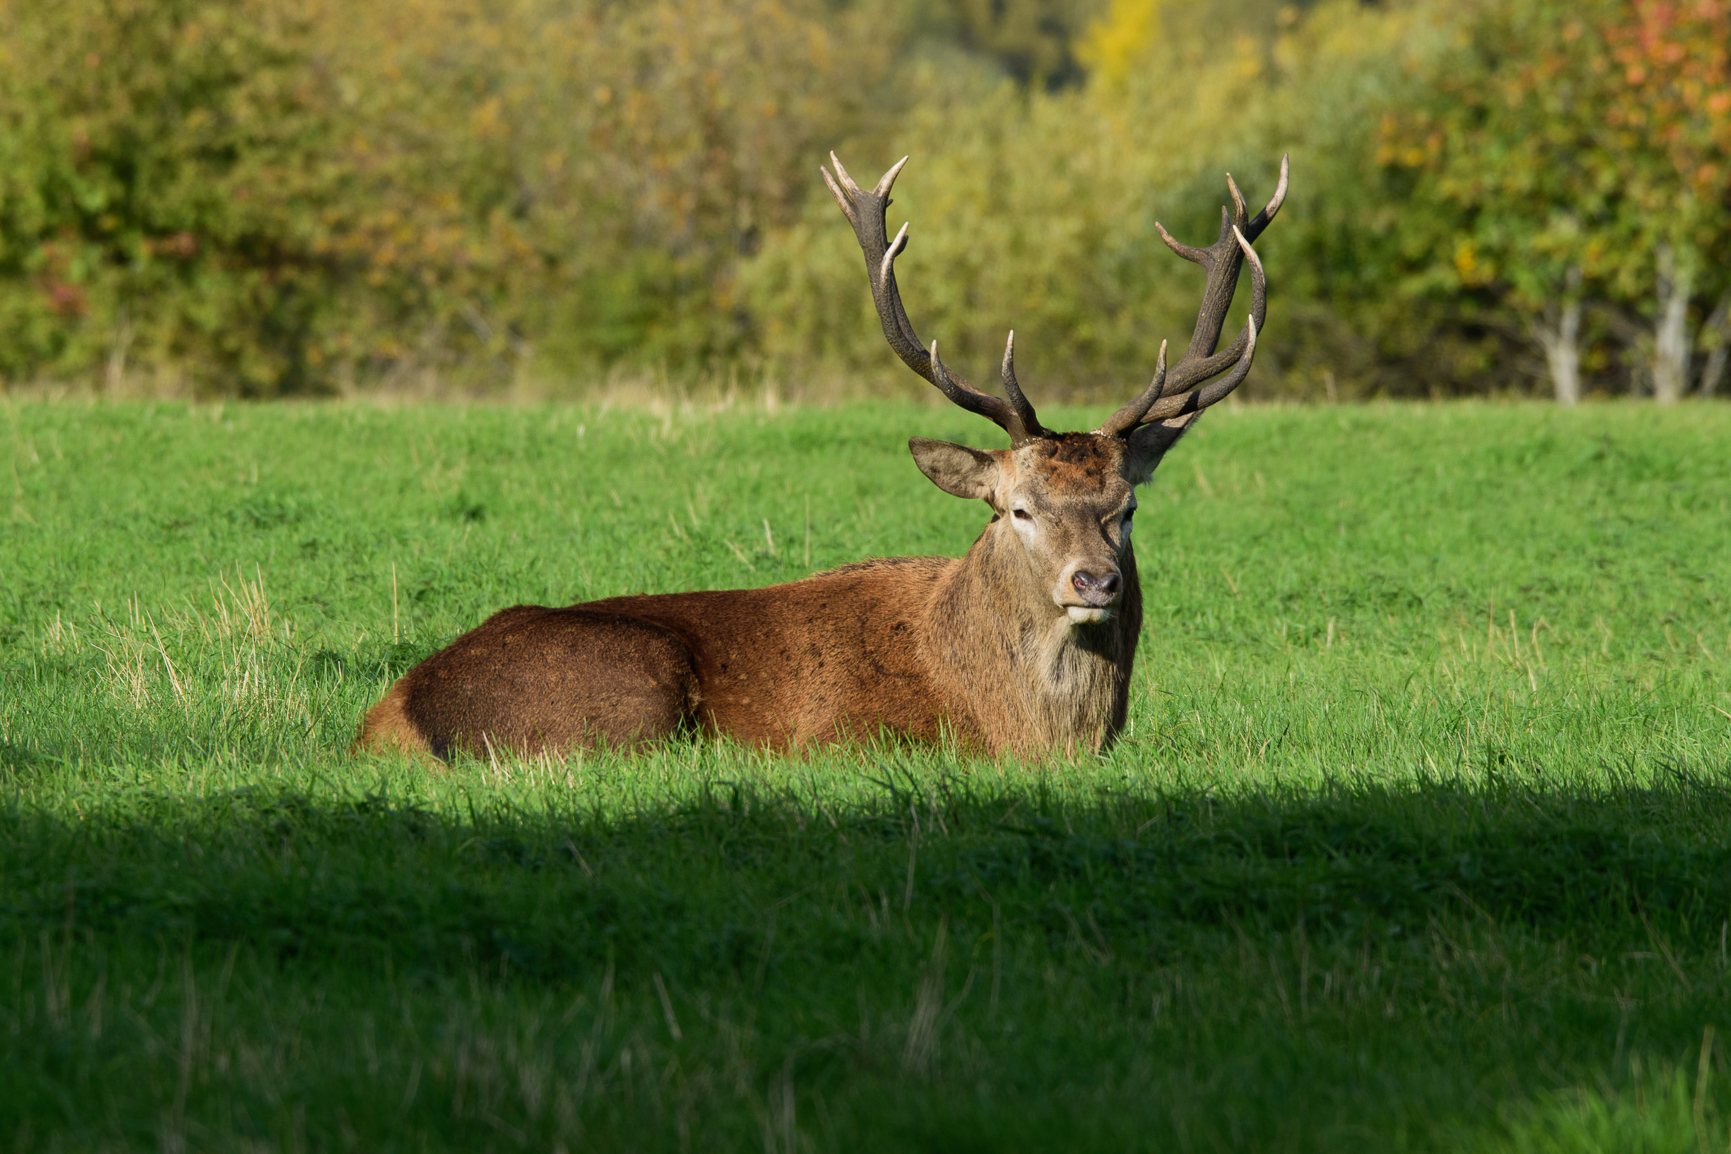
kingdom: Animalia
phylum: Chordata
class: Mammalia
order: Artiodactyla
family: Cervidae
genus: Cervus
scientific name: Cervus elaphus
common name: Red deer
